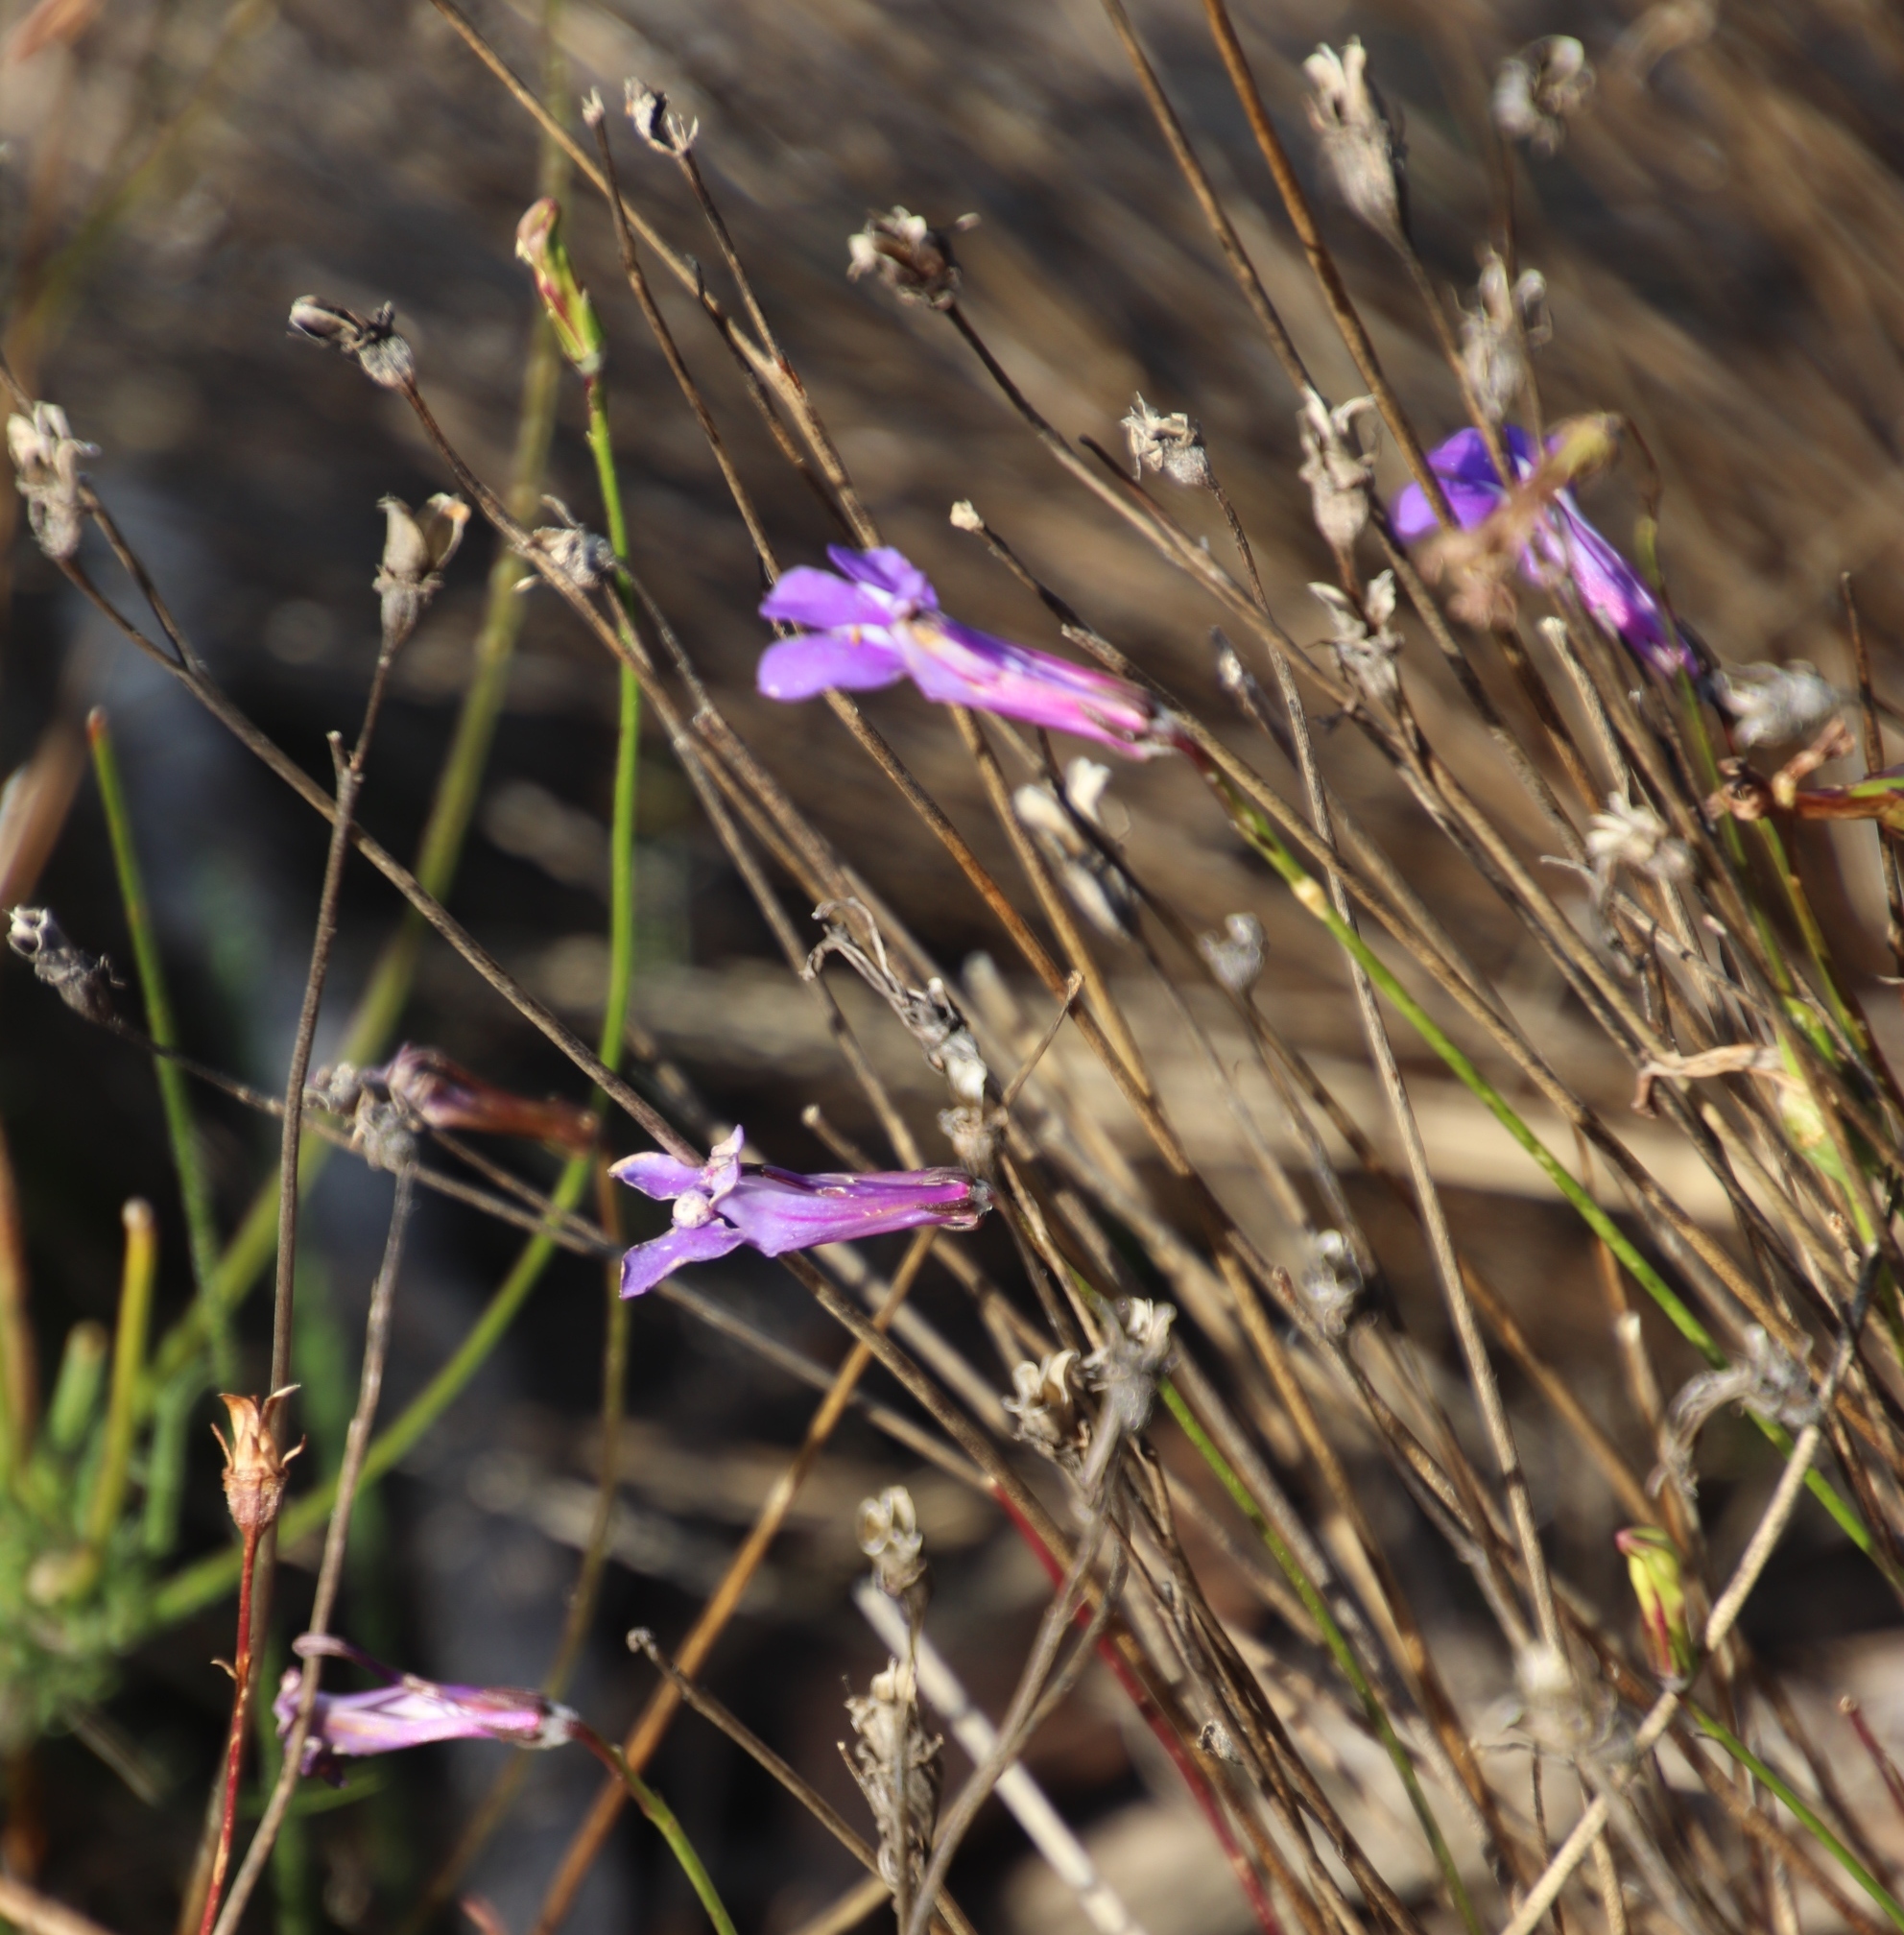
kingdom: Plantae
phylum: Tracheophyta
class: Magnoliopsida
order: Asterales
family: Campanulaceae
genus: Lobelia
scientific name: Lobelia coronopifolia
